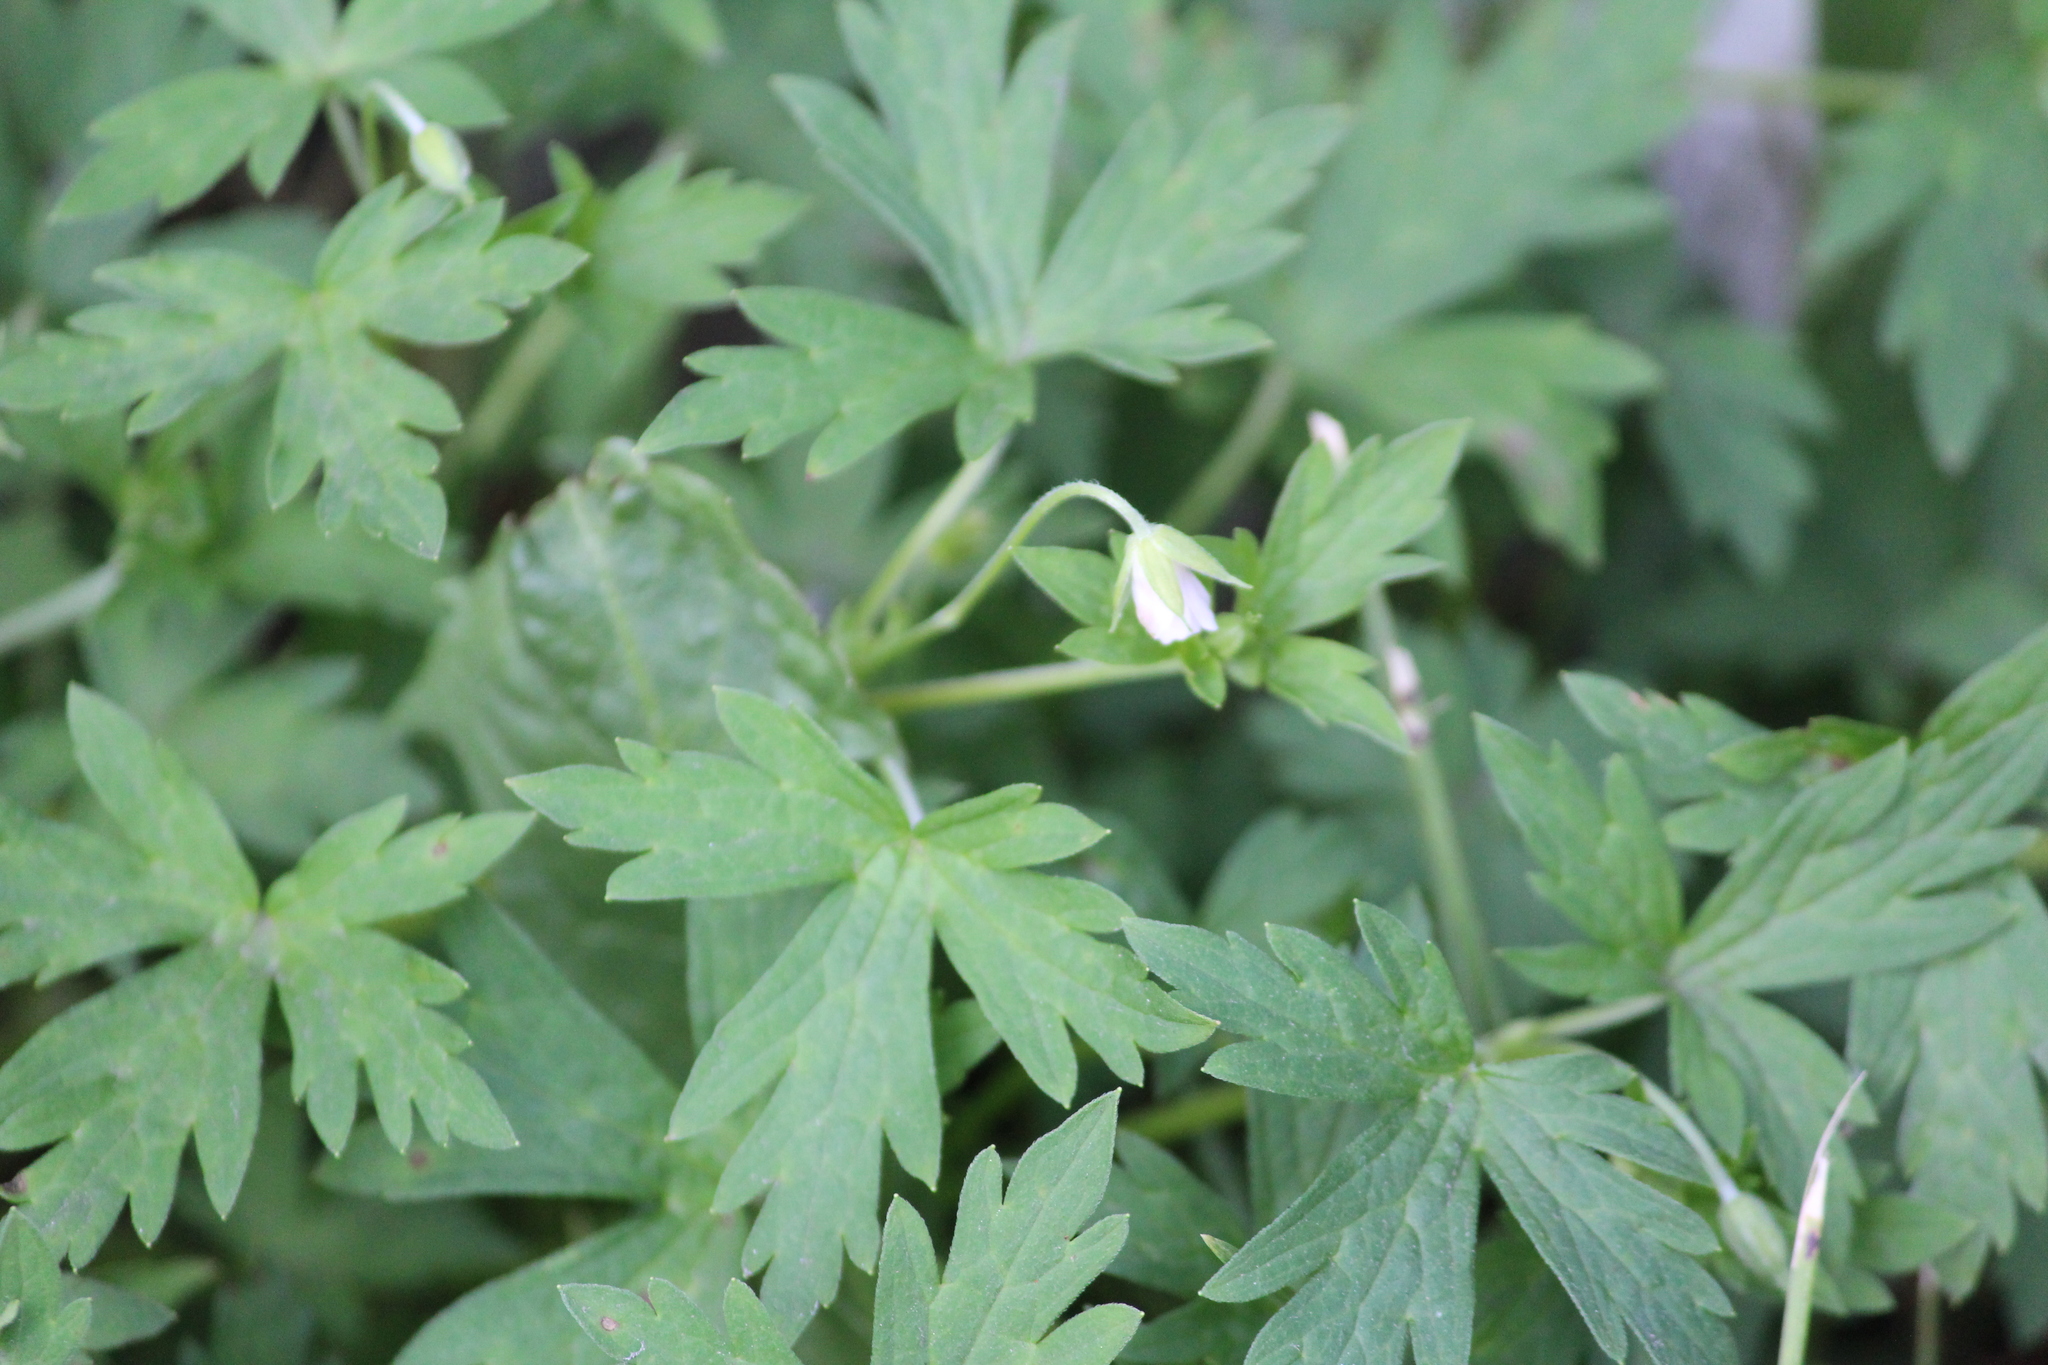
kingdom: Plantae
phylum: Tracheophyta
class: Magnoliopsida
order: Geraniales
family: Geraniaceae
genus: Geranium
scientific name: Geranium sibiricum
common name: Siberian crane's-bill
